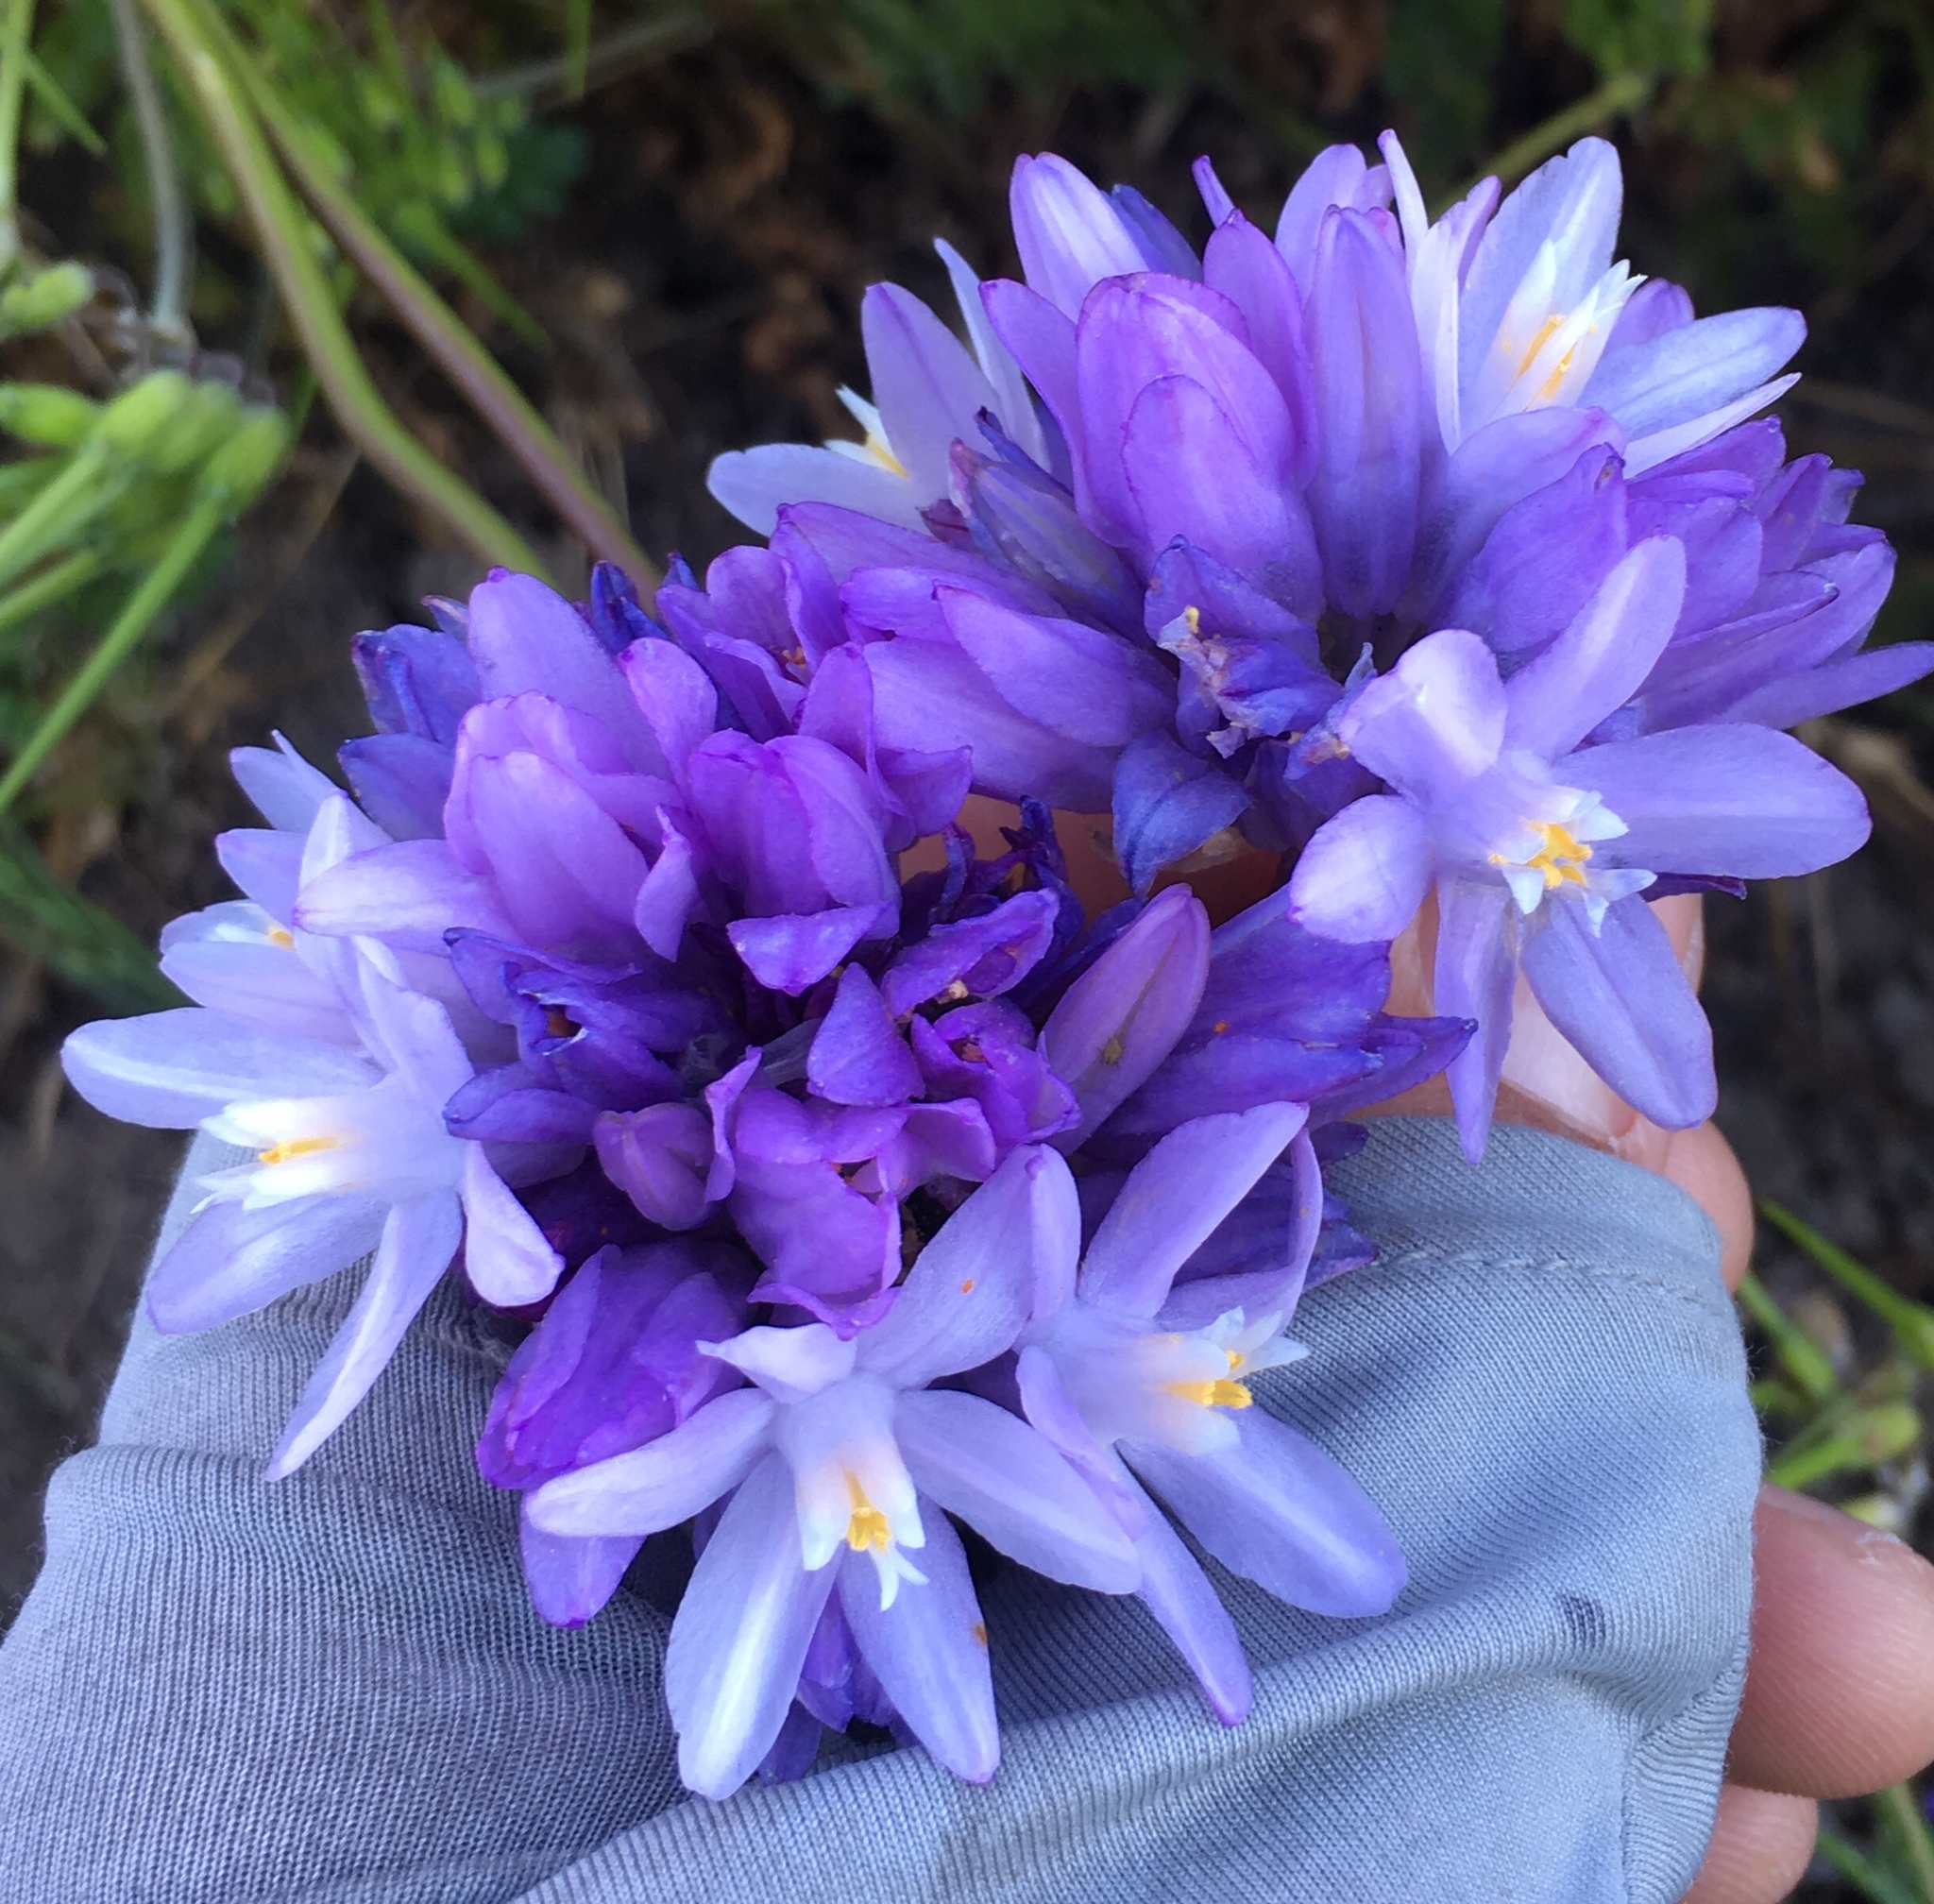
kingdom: Plantae
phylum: Tracheophyta
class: Liliopsida
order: Asparagales
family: Asparagaceae
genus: Dipterostemon
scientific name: Dipterostemon capitatus
